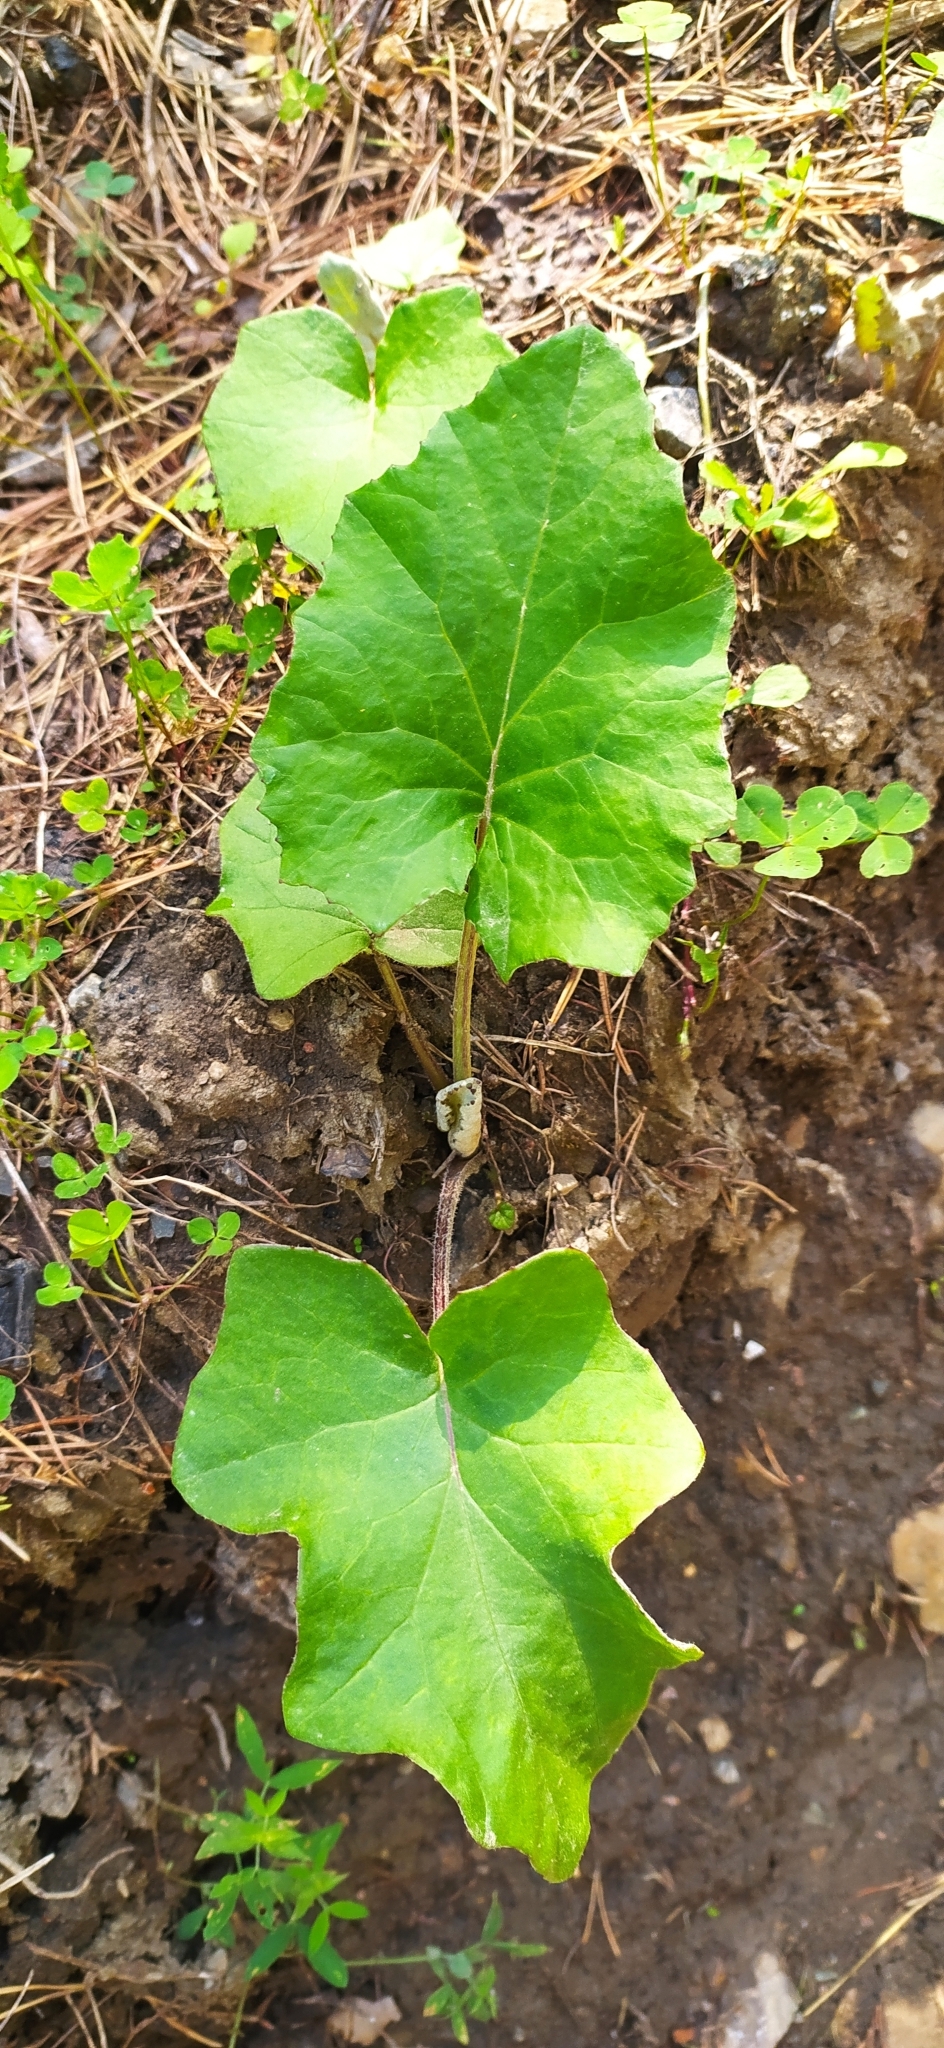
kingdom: Plantae
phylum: Tracheophyta
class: Magnoliopsida
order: Asterales
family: Asteraceae
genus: Tussilago
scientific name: Tussilago farfara
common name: Coltsfoot
